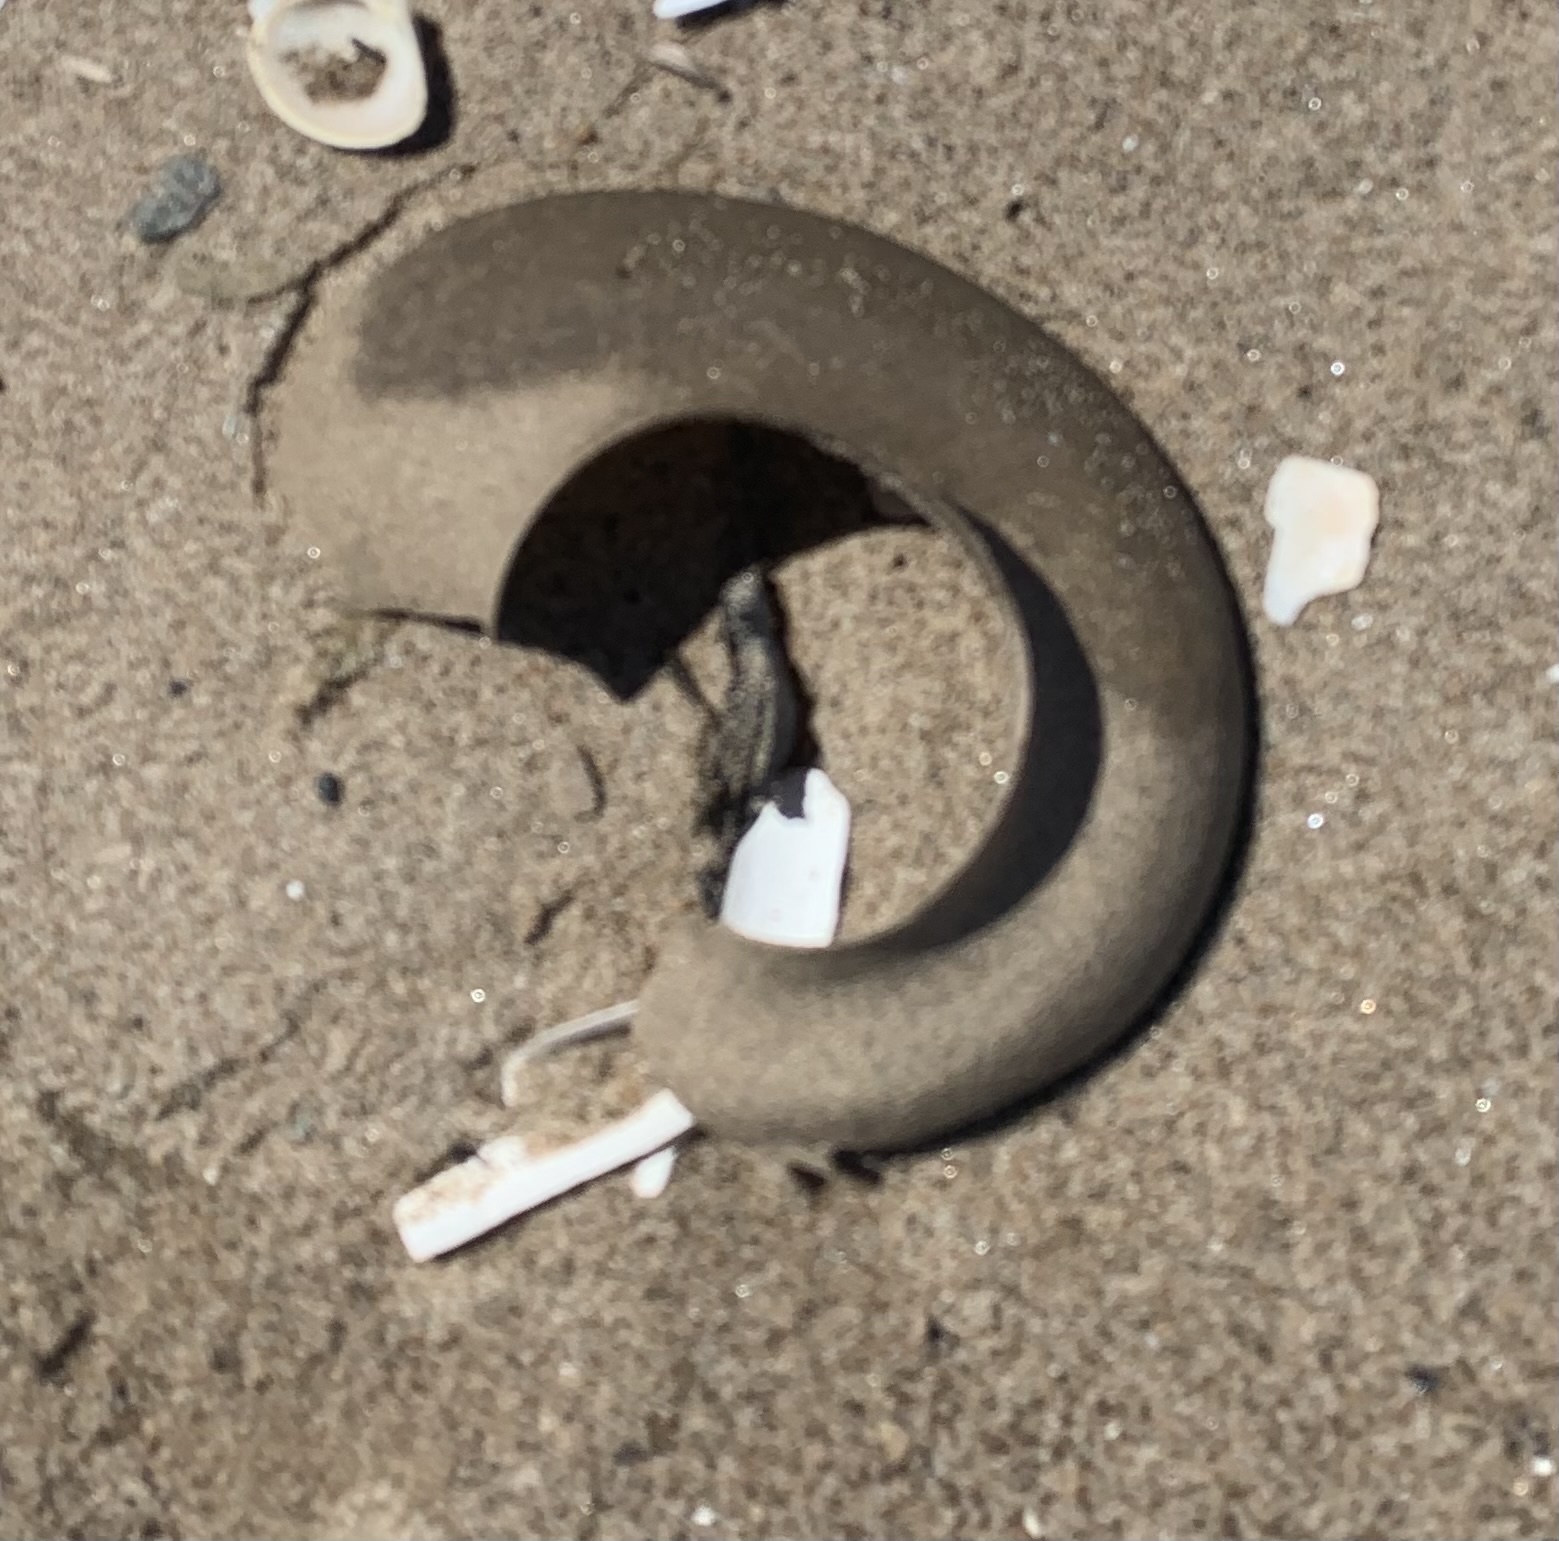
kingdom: Animalia
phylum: Mollusca
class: Gastropoda
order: Littorinimorpha
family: Naticidae
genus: Euspira
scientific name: Euspira heros
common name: Common northern moonsnail
